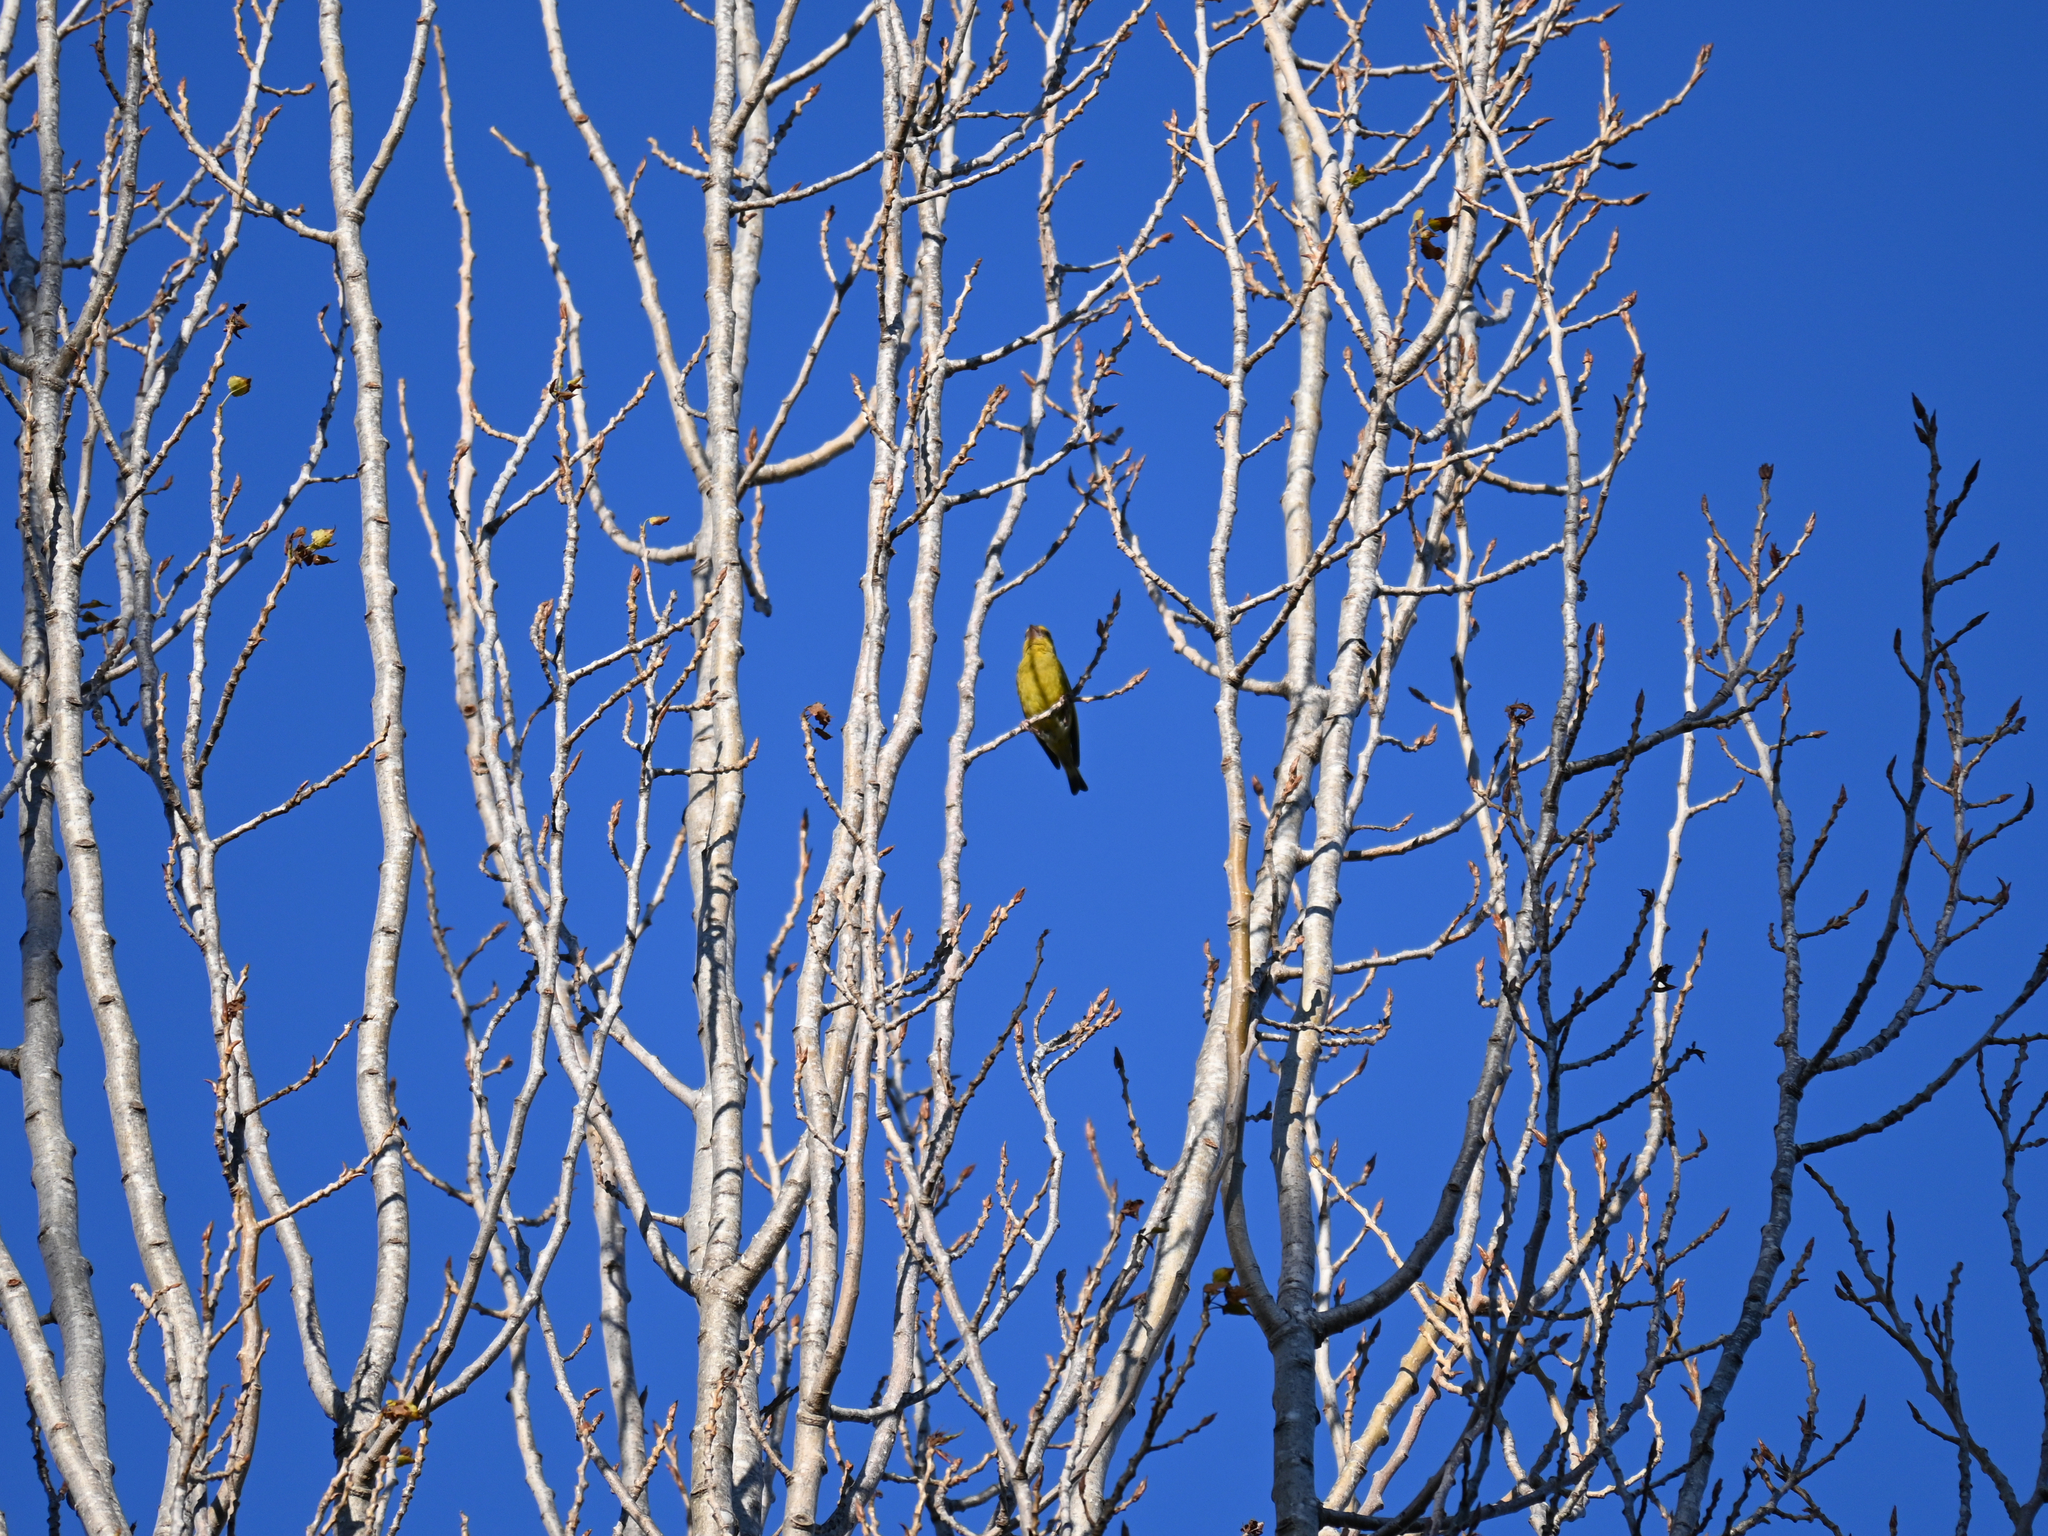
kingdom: Plantae
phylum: Tracheophyta
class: Liliopsida
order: Poales
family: Poaceae
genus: Chloris
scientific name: Chloris chloris
